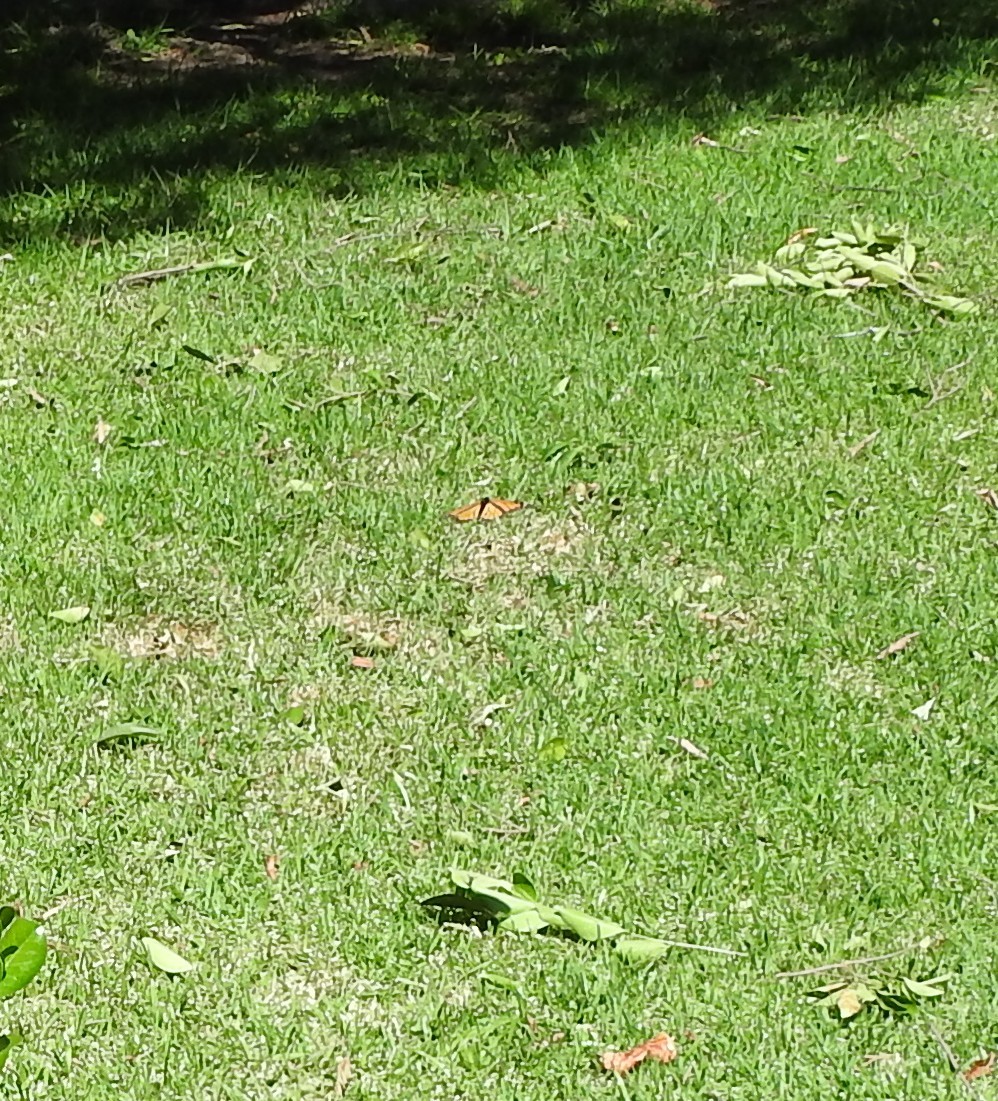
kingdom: Animalia
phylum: Arthropoda
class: Insecta
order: Lepidoptera
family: Nymphalidae
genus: Danaus
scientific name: Danaus plexippus
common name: Monarch
